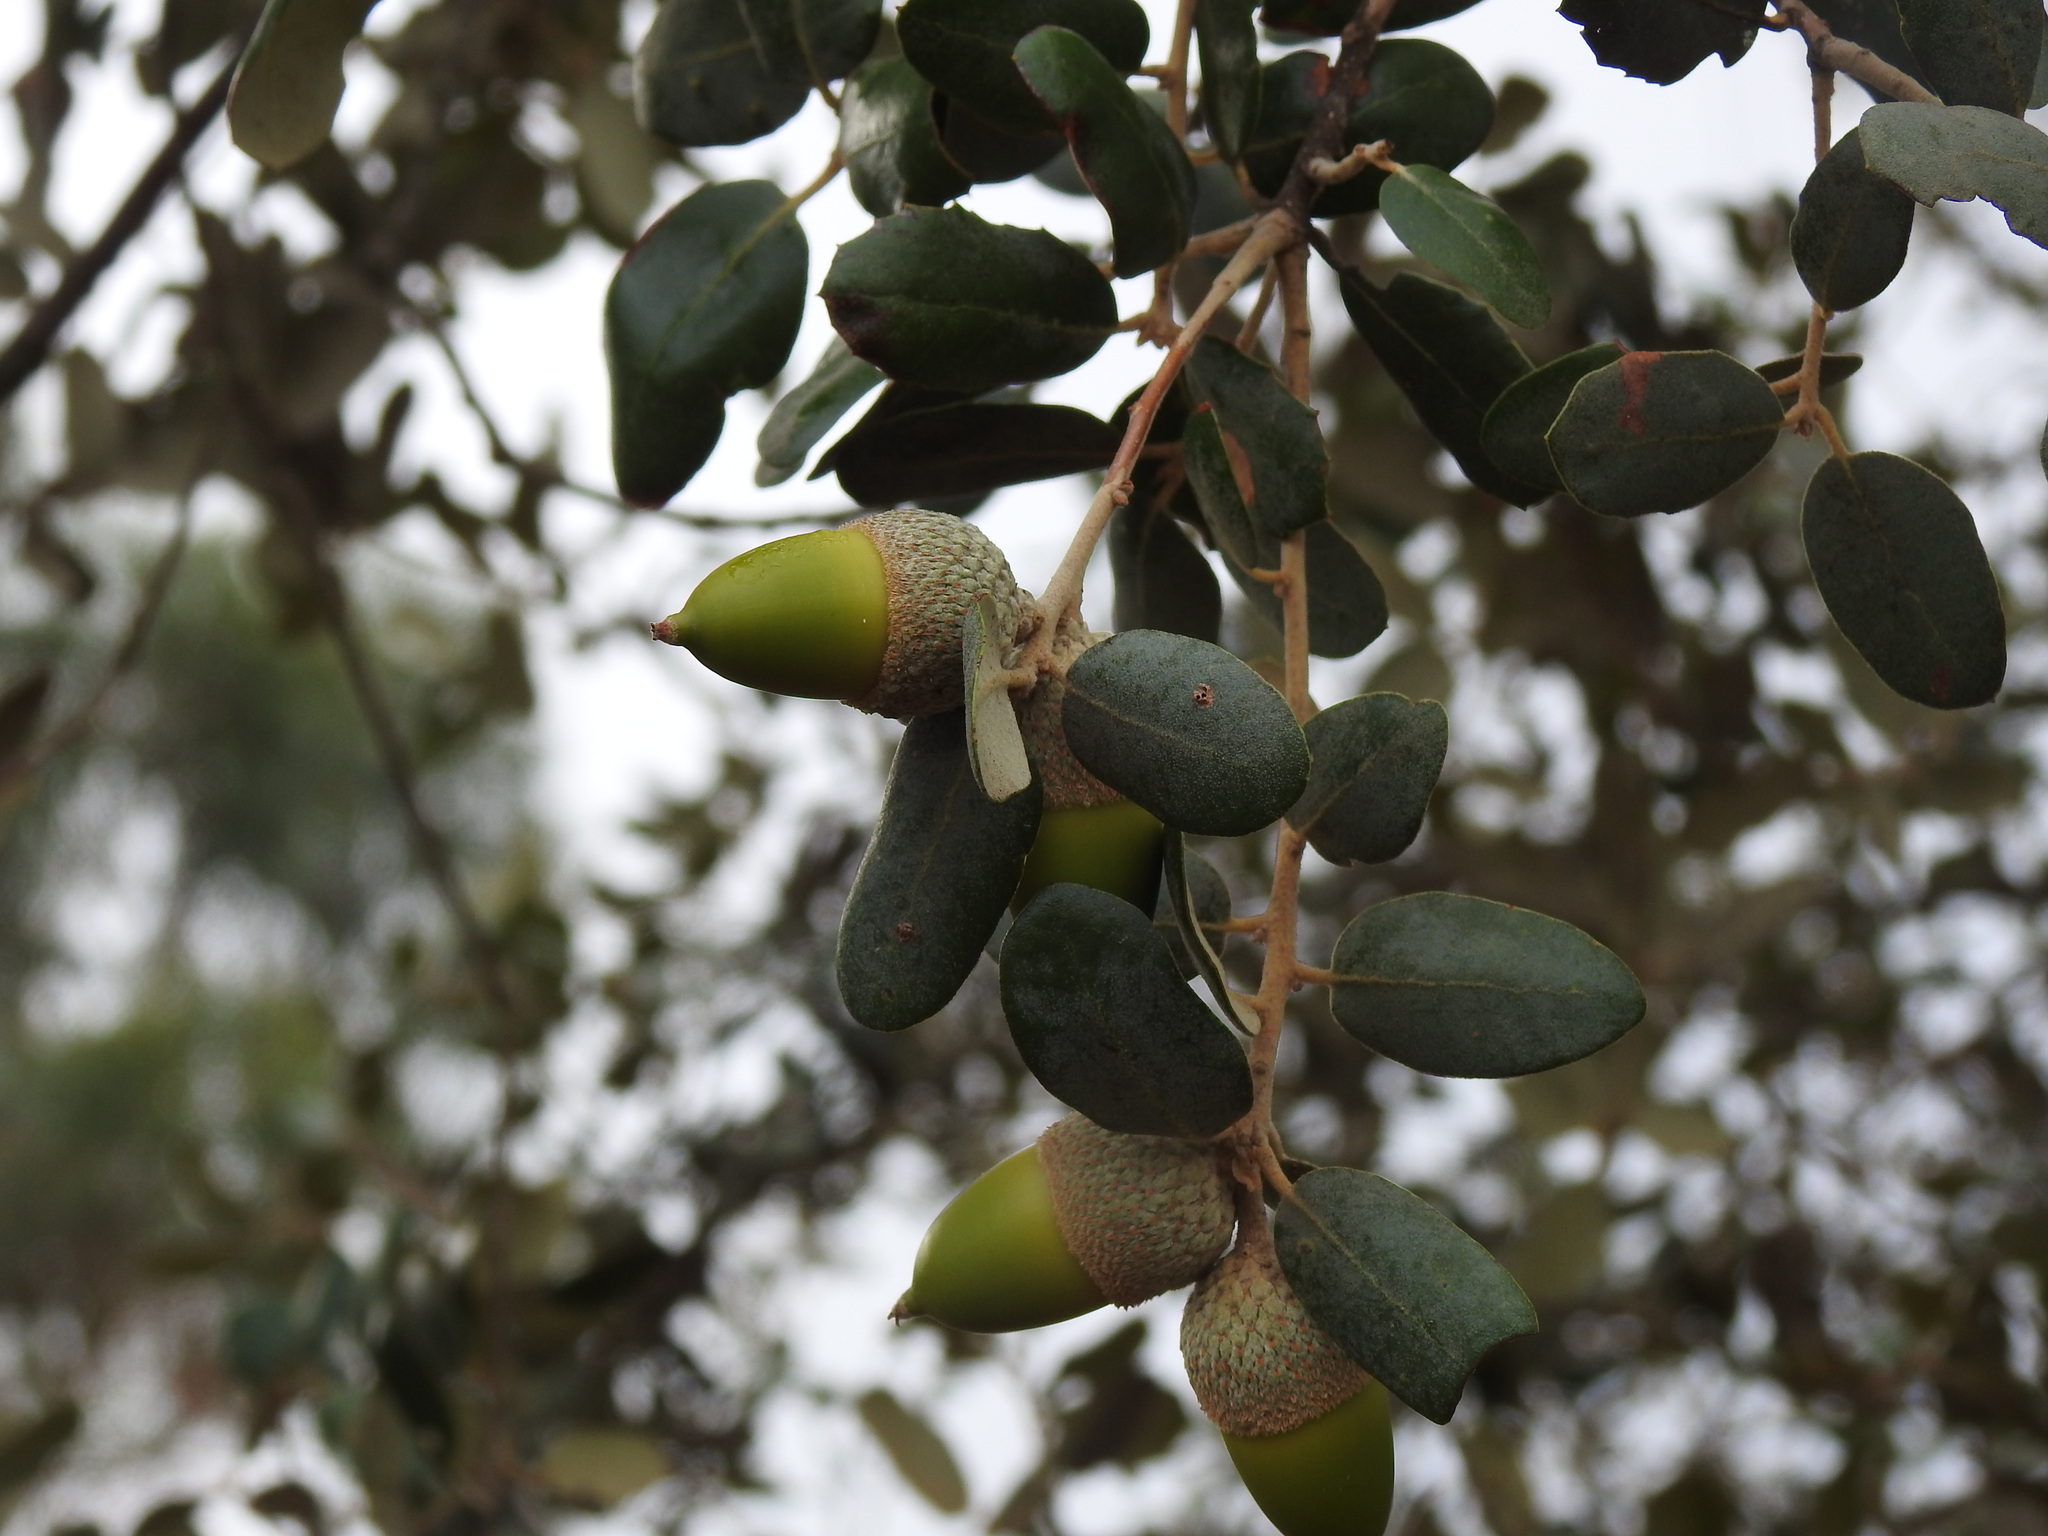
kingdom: Plantae
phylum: Tracheophyta
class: Magnoliopsida
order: Fagales
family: Fagaceae
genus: Quercus
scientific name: Quercus rotundifolia
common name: Holm oak
